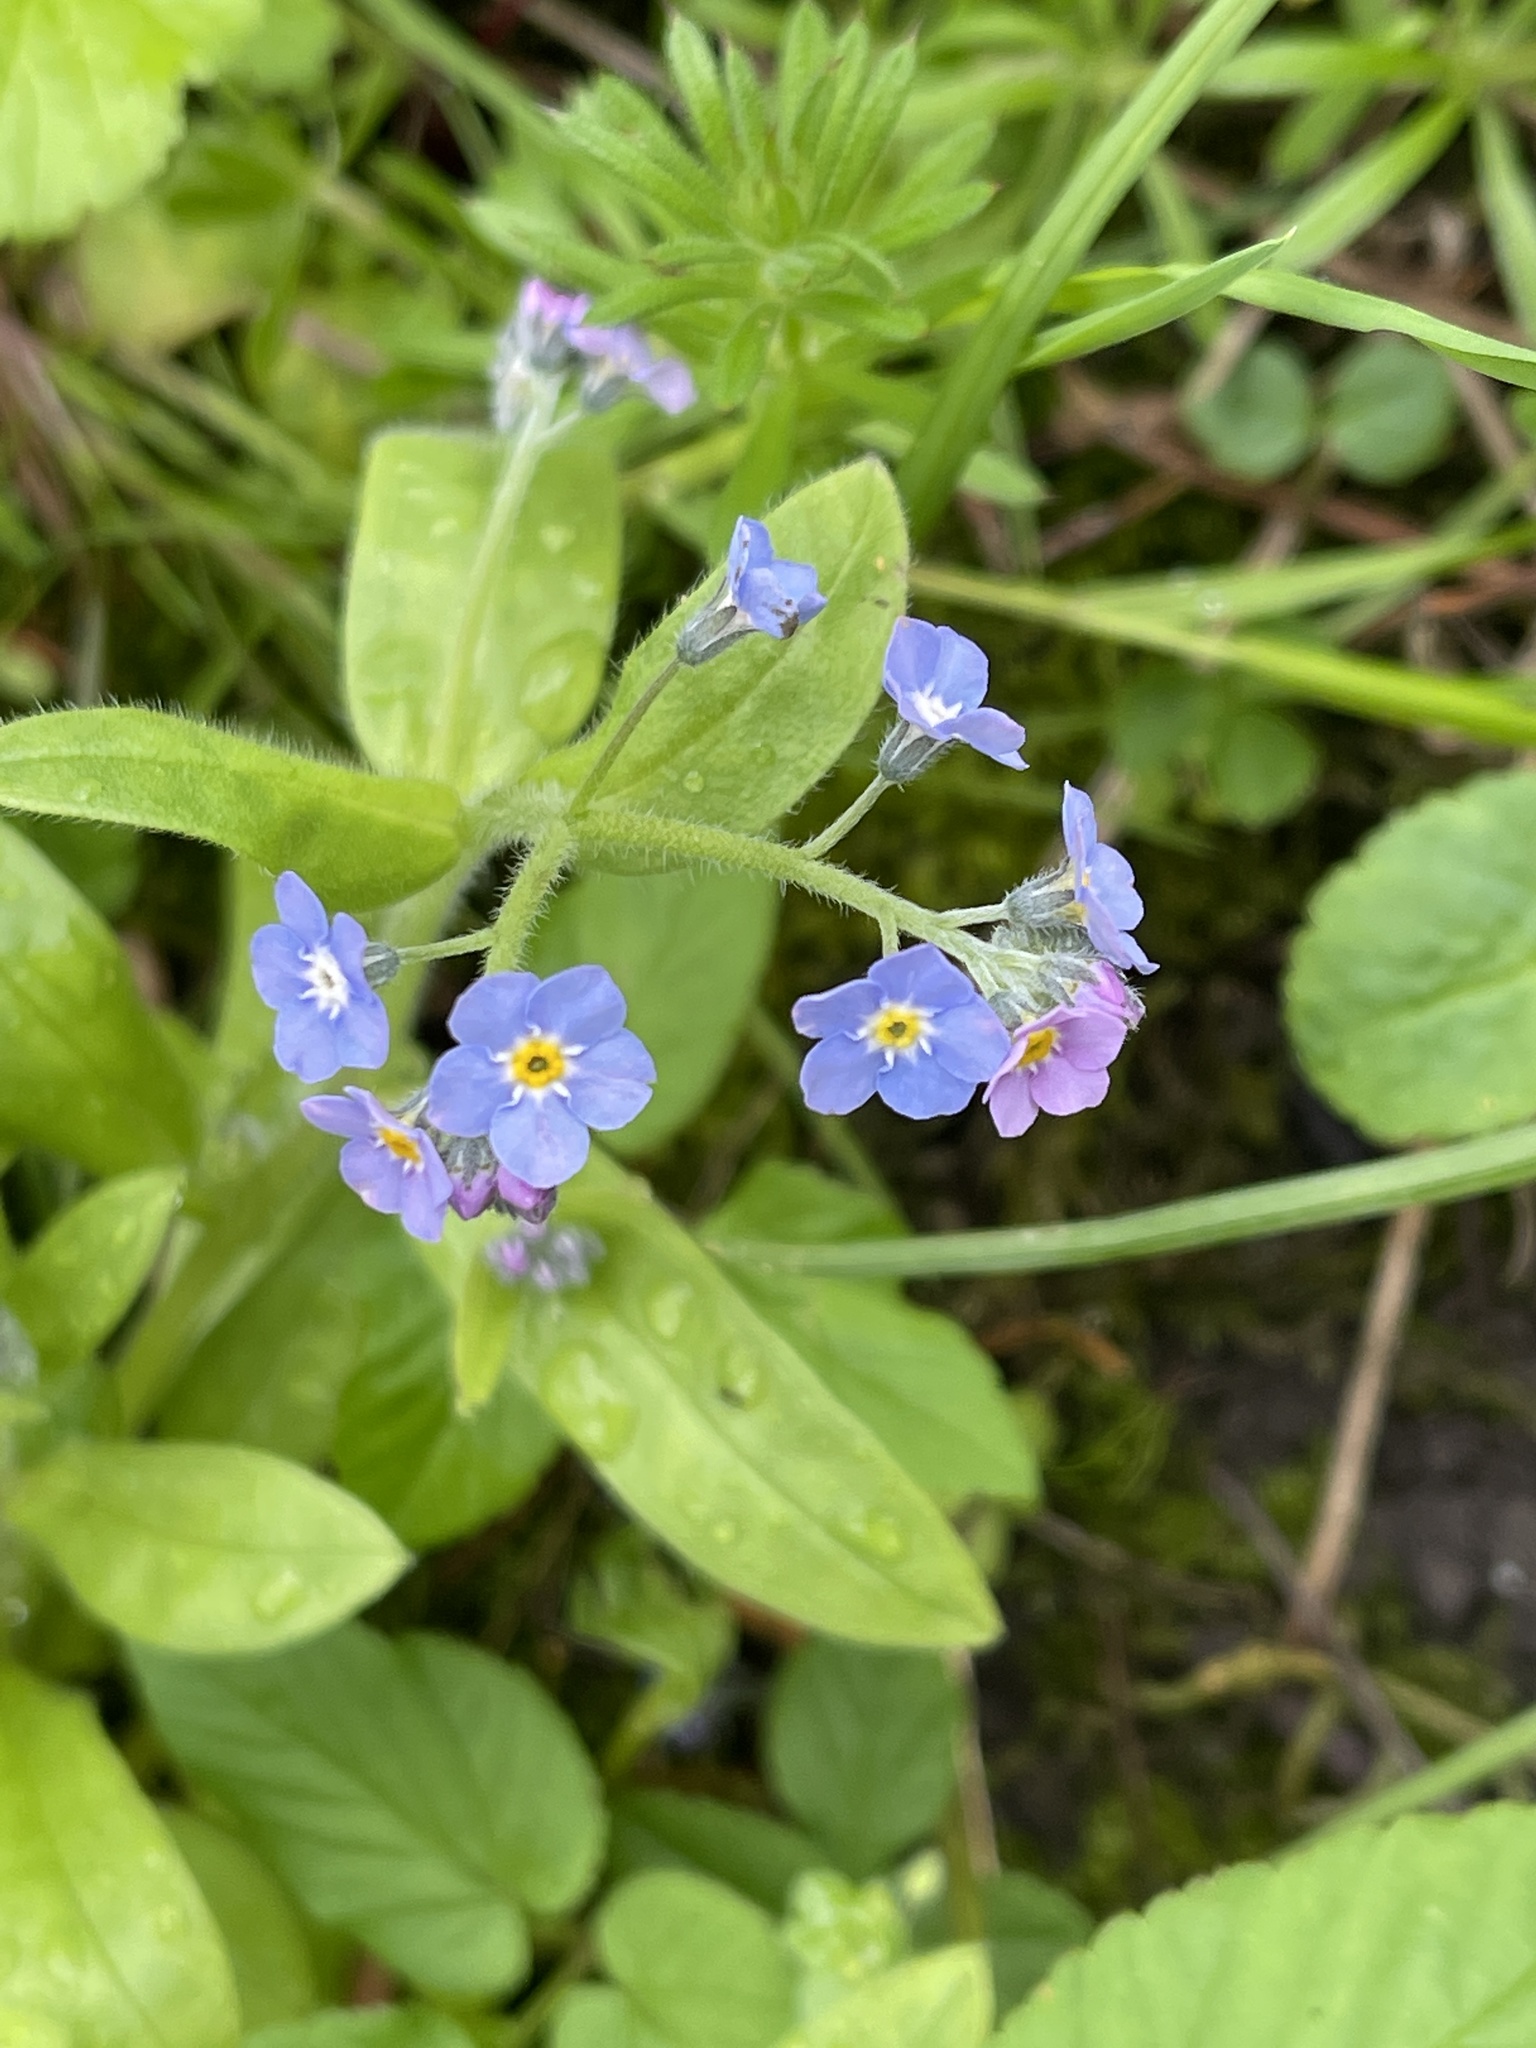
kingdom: Plantae
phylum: Tracheophyta
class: Magnoliopsida
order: Boraginales
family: Boraginaceae
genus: Myosotis
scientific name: Myosotis sylvatica
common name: Wood forget-me-not
